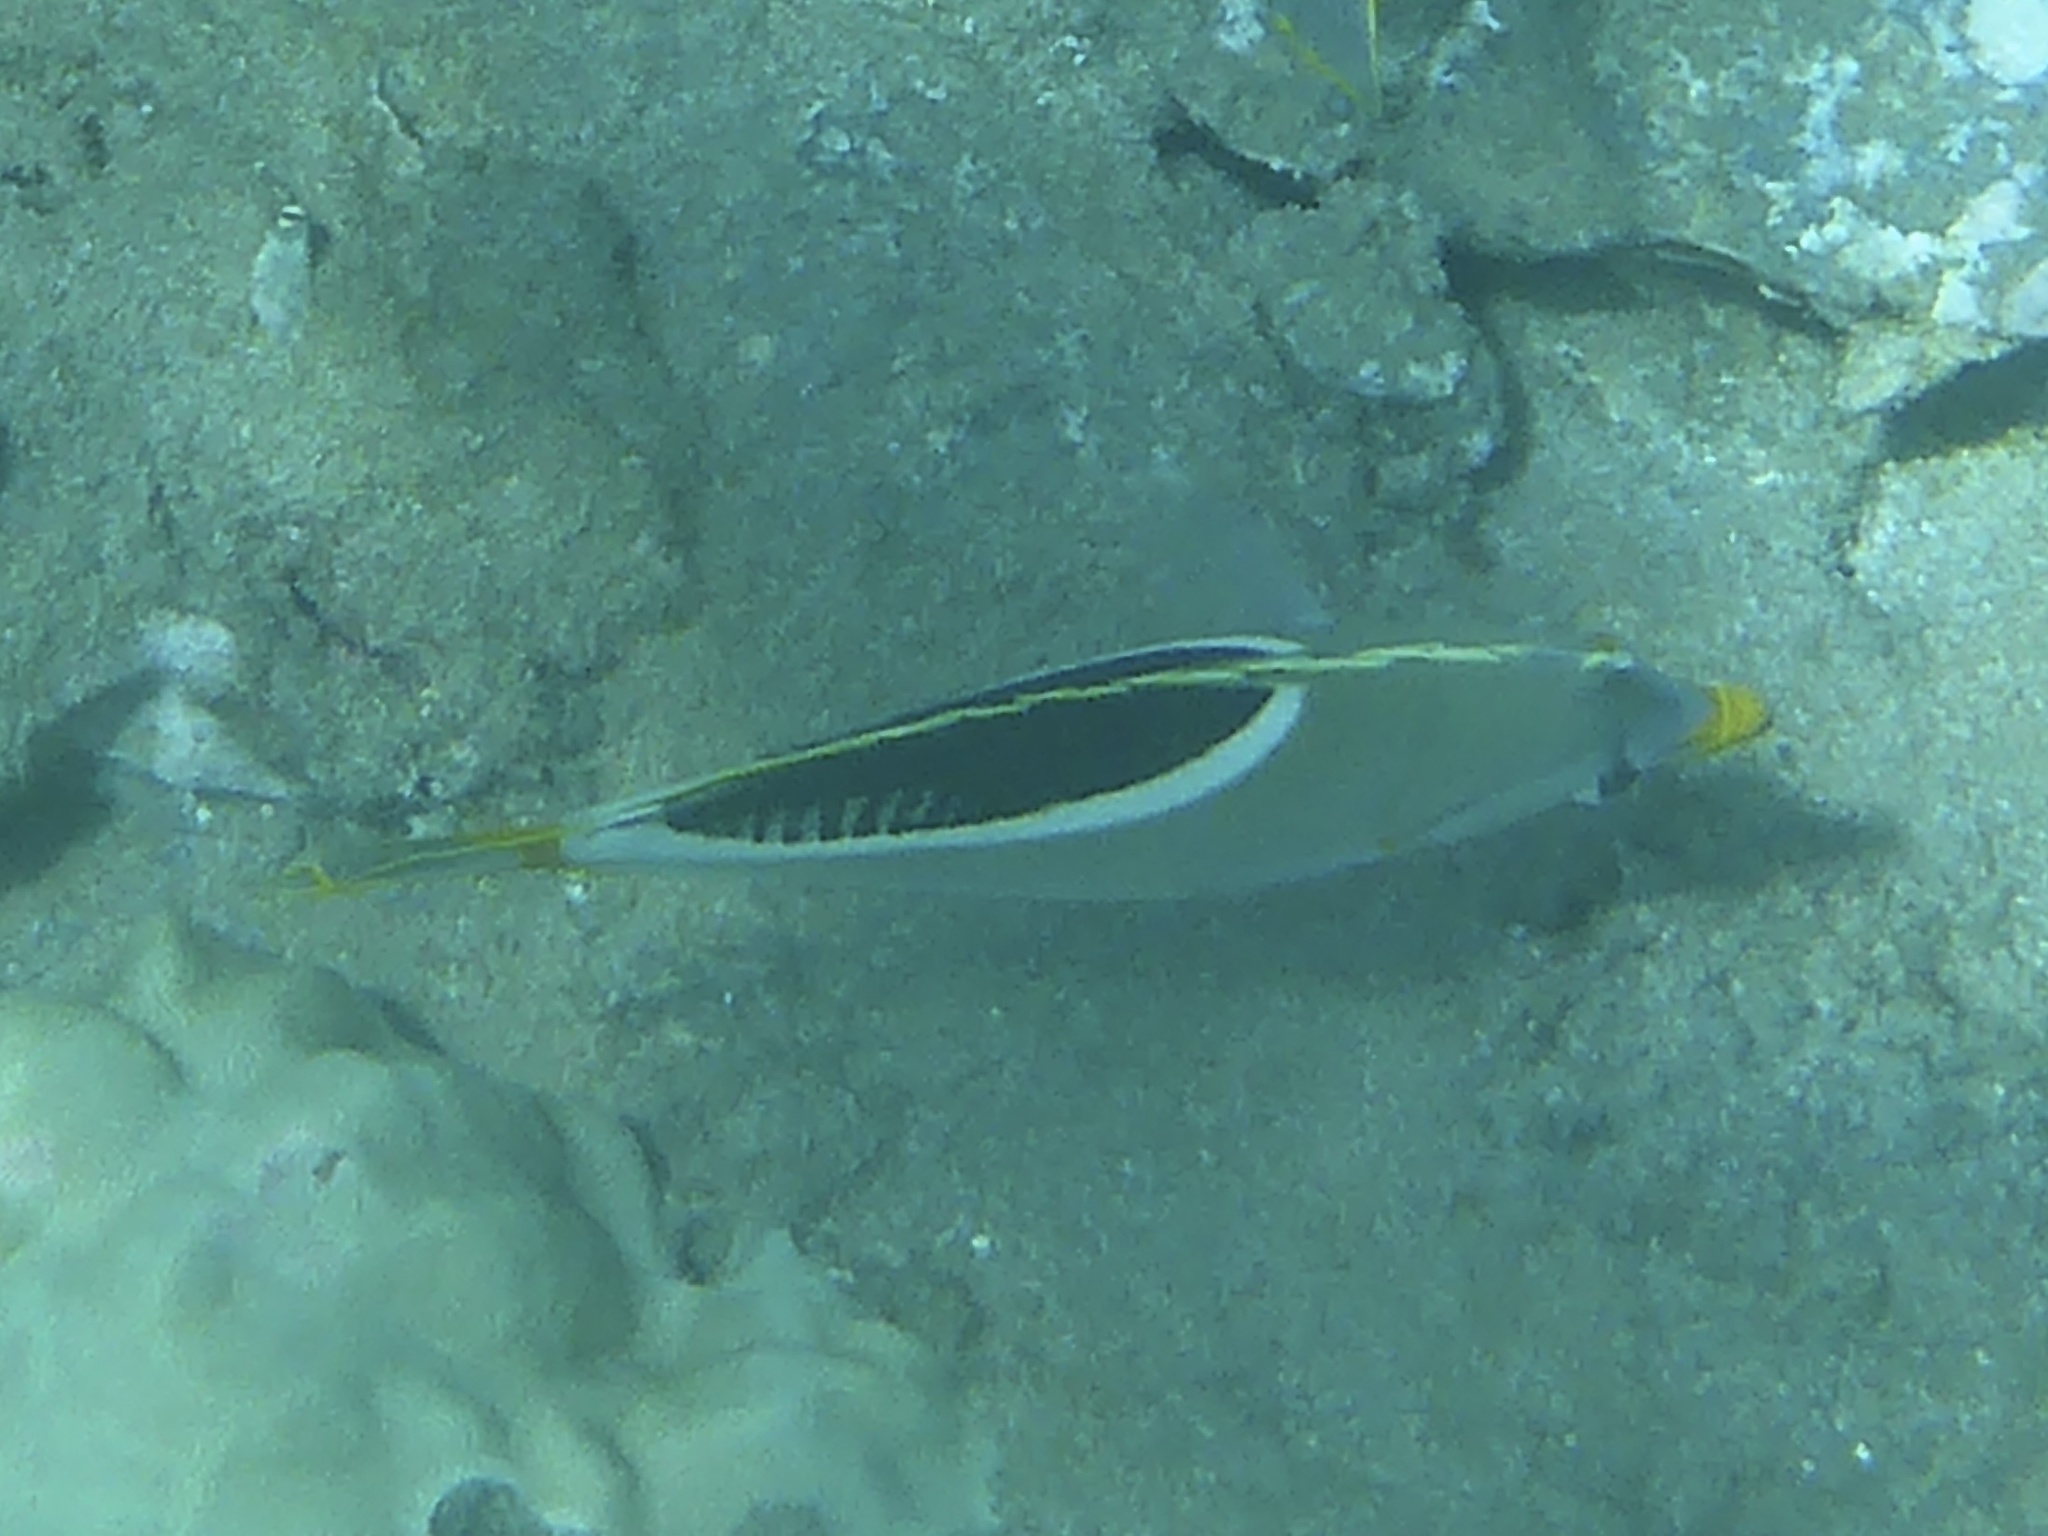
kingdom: Animalia
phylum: Chordata
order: Perciformes
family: Chaetodontidae
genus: Chaetodon
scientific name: Chaetodon ephippium
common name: Saddled butterflyfish
